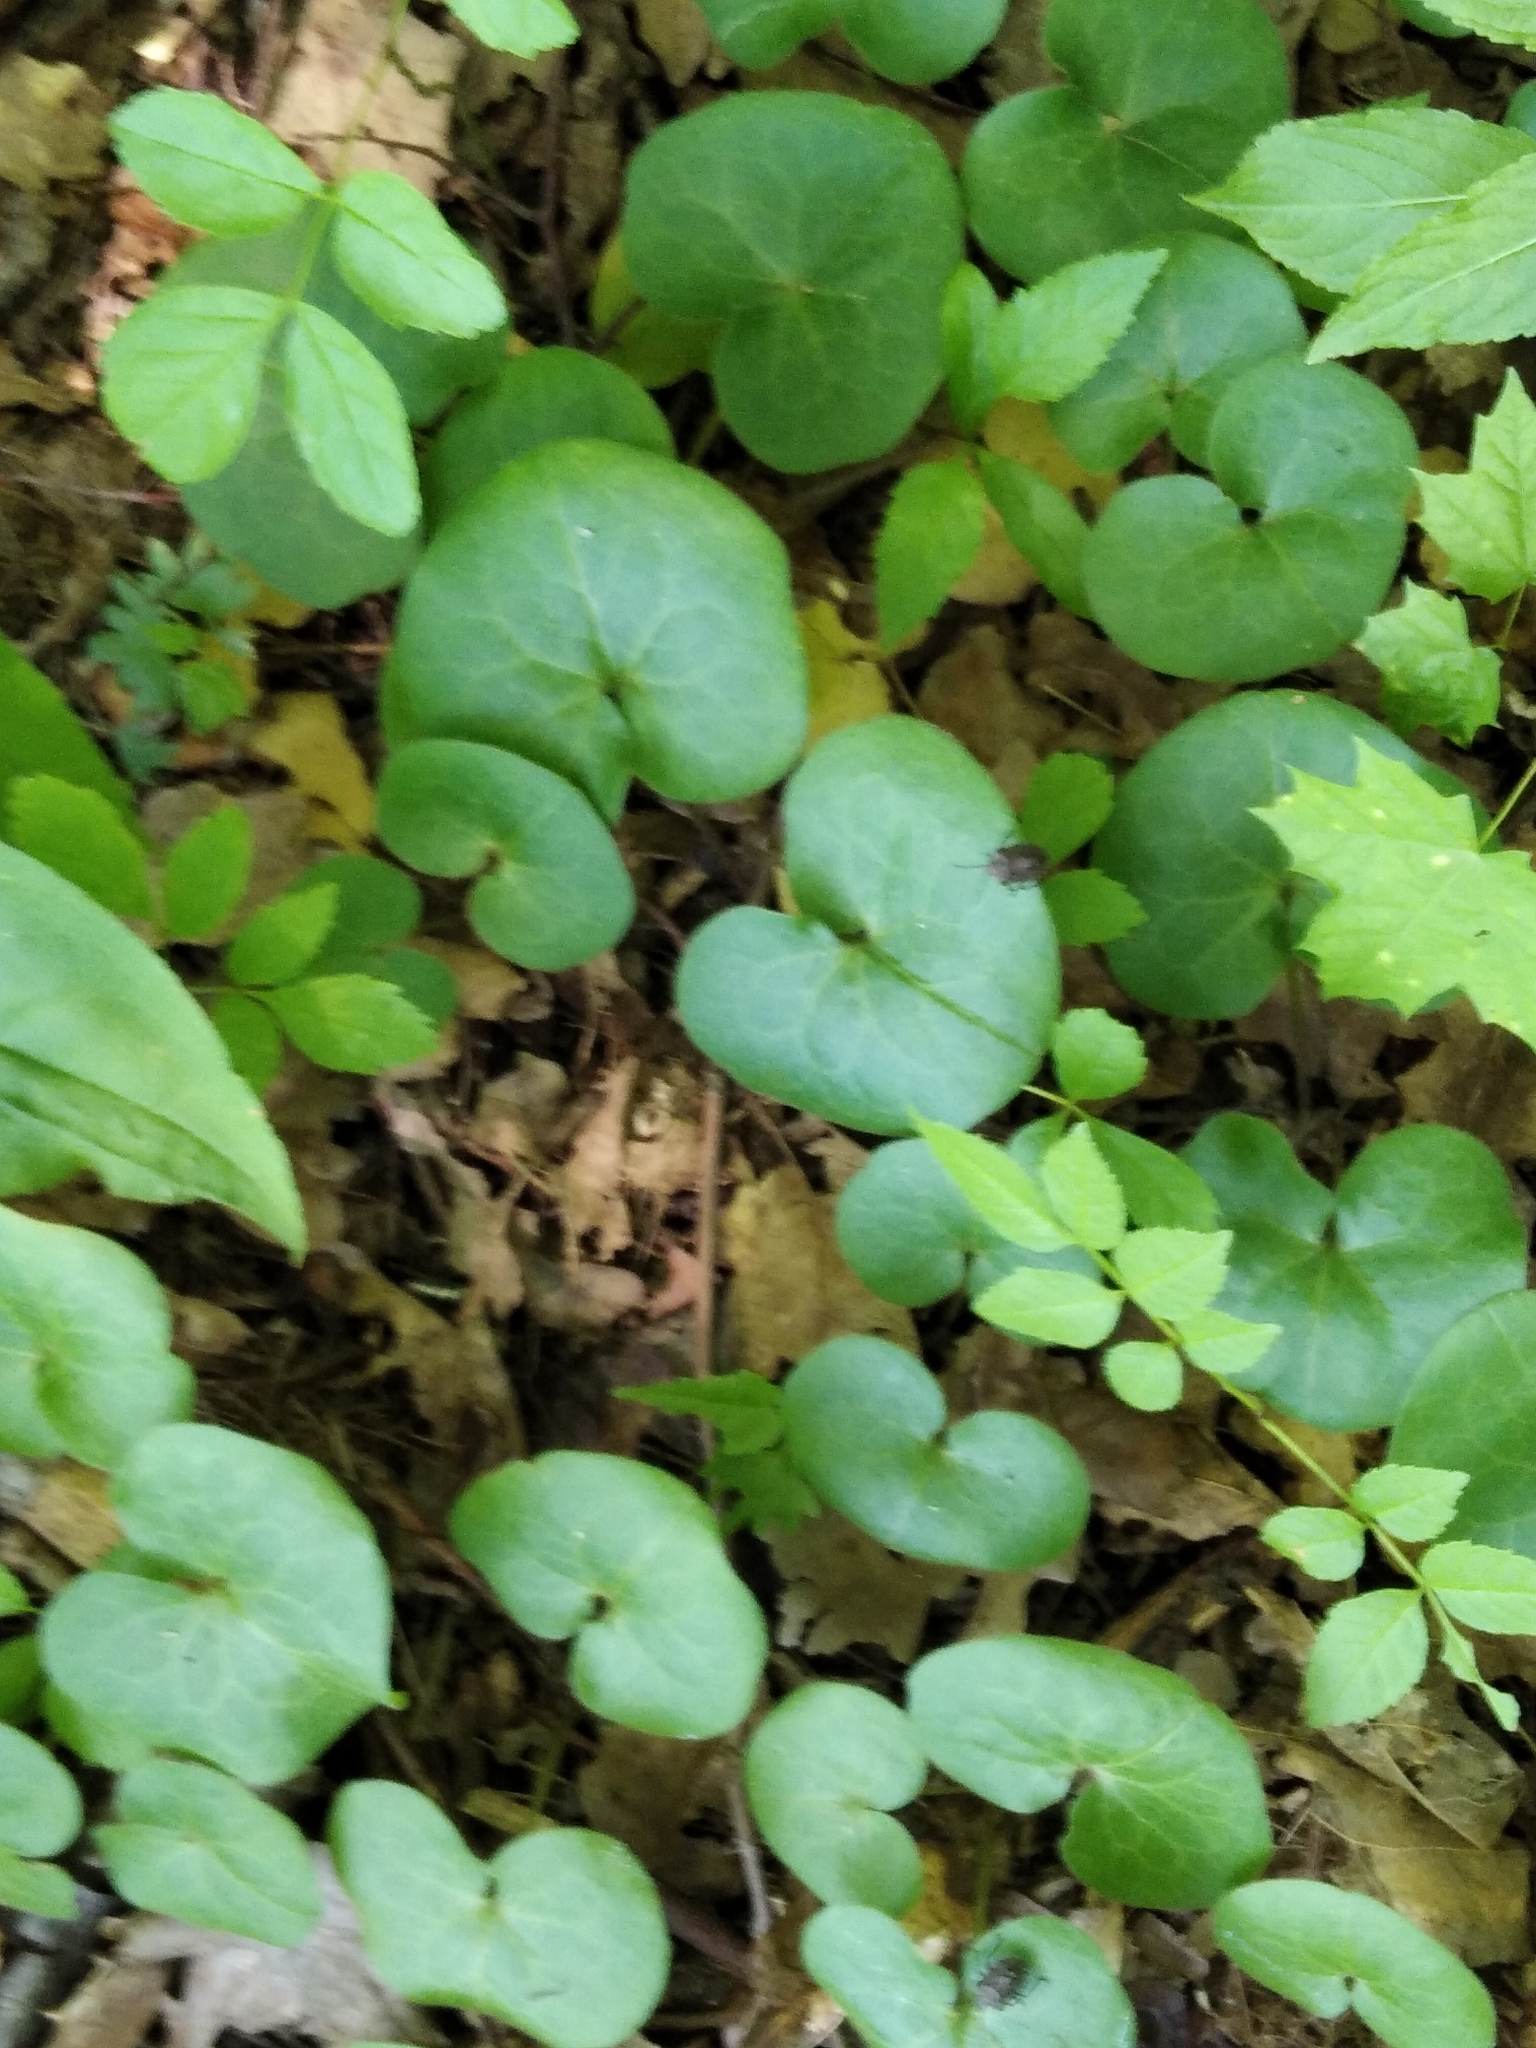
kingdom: Plantae
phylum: Tracheophyta
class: Magnoliopsida
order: Piperales
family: Aristolochiaceae
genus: Asarum
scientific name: Asarum europaeum
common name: Asarabacca
